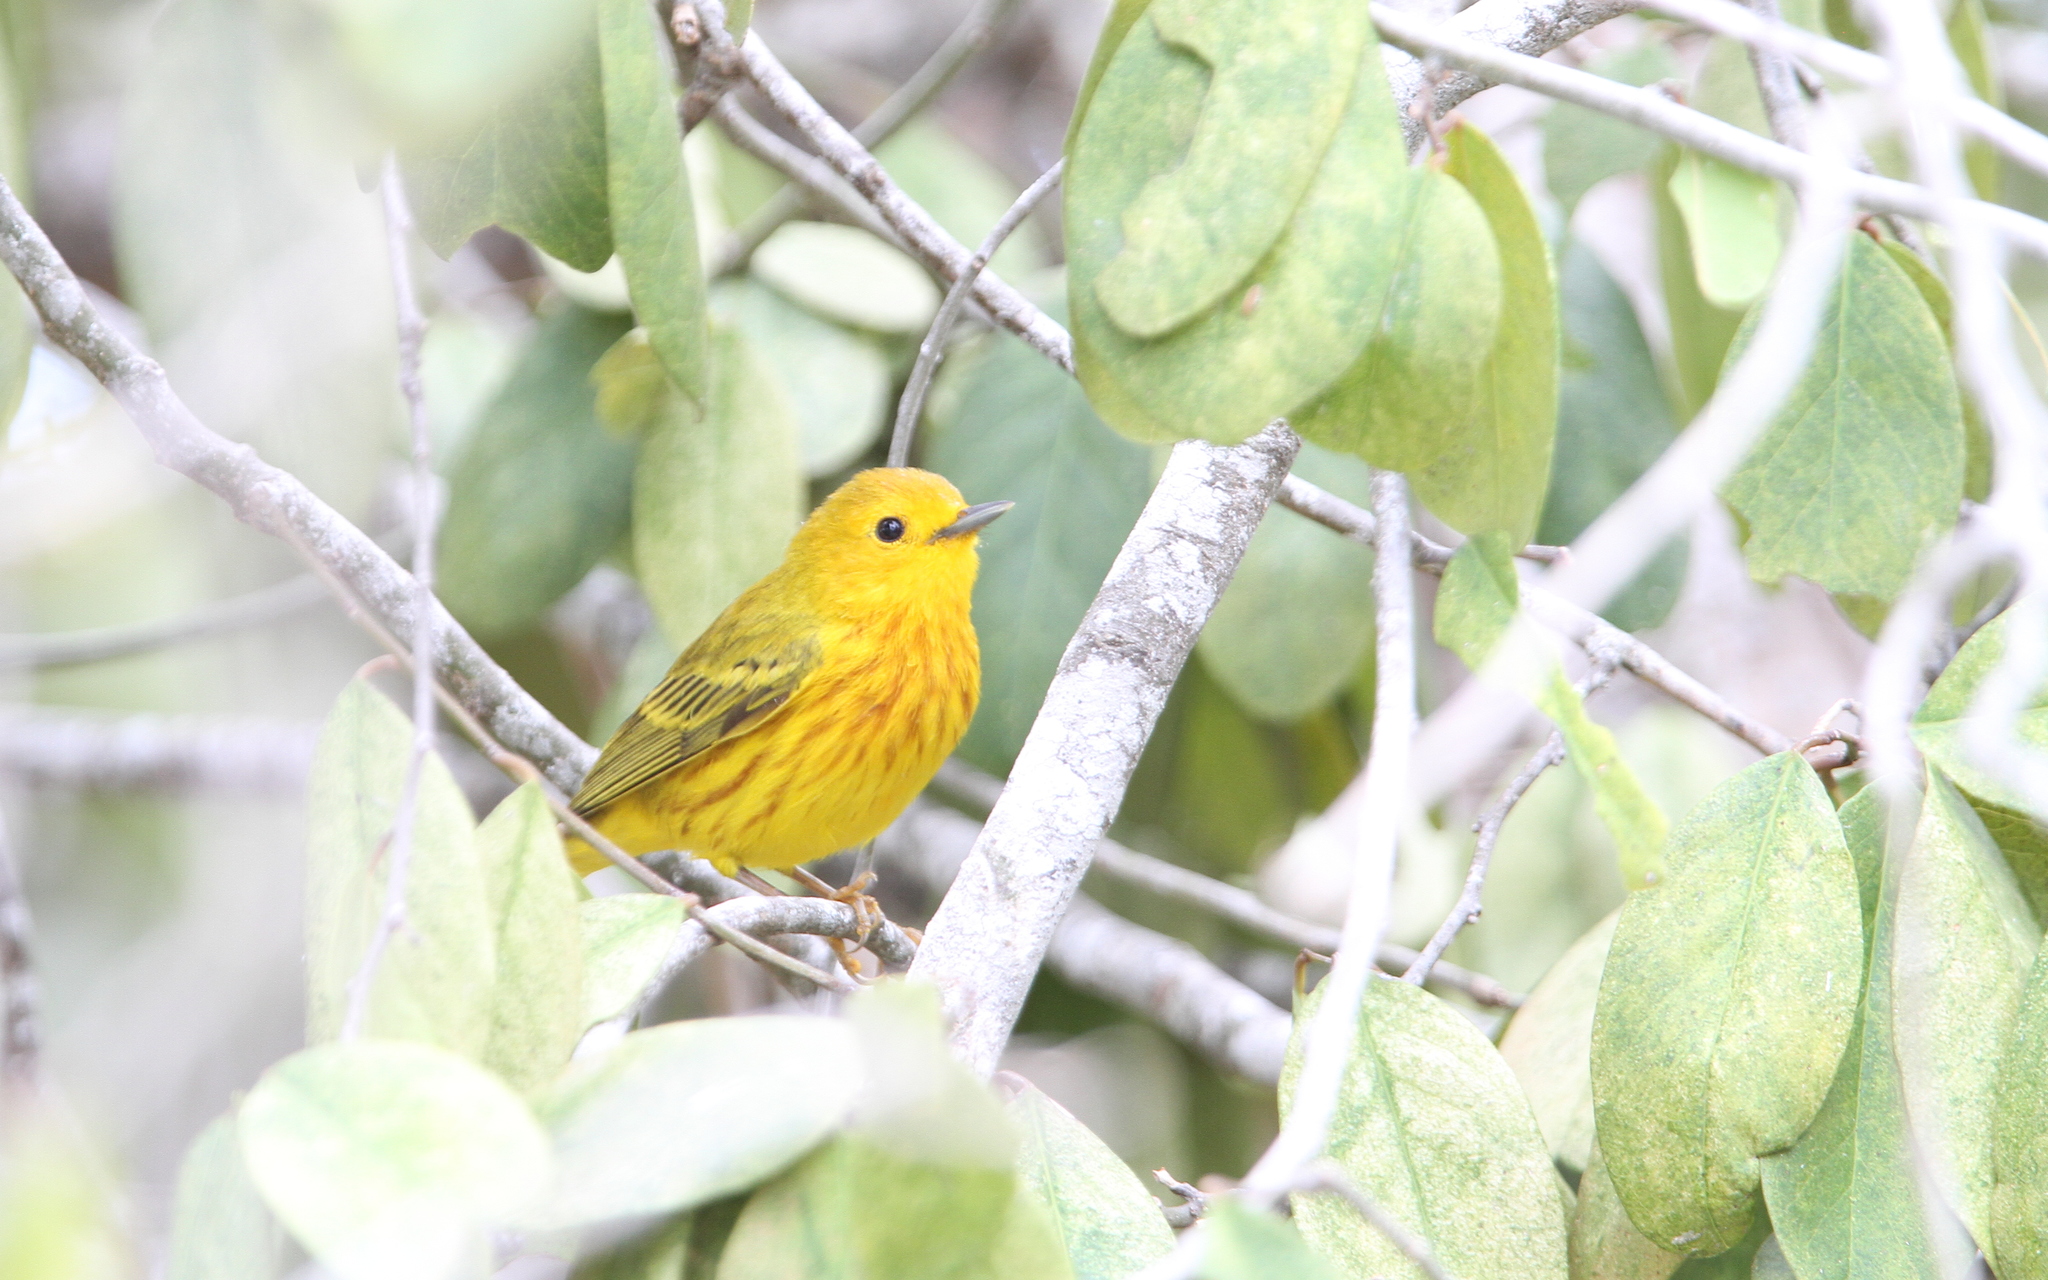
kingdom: Animalia
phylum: Chordata
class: Aves
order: Passeriformes
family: Parulidae
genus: Setophaga
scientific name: Setophaga petechia
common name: Yellow warbler
